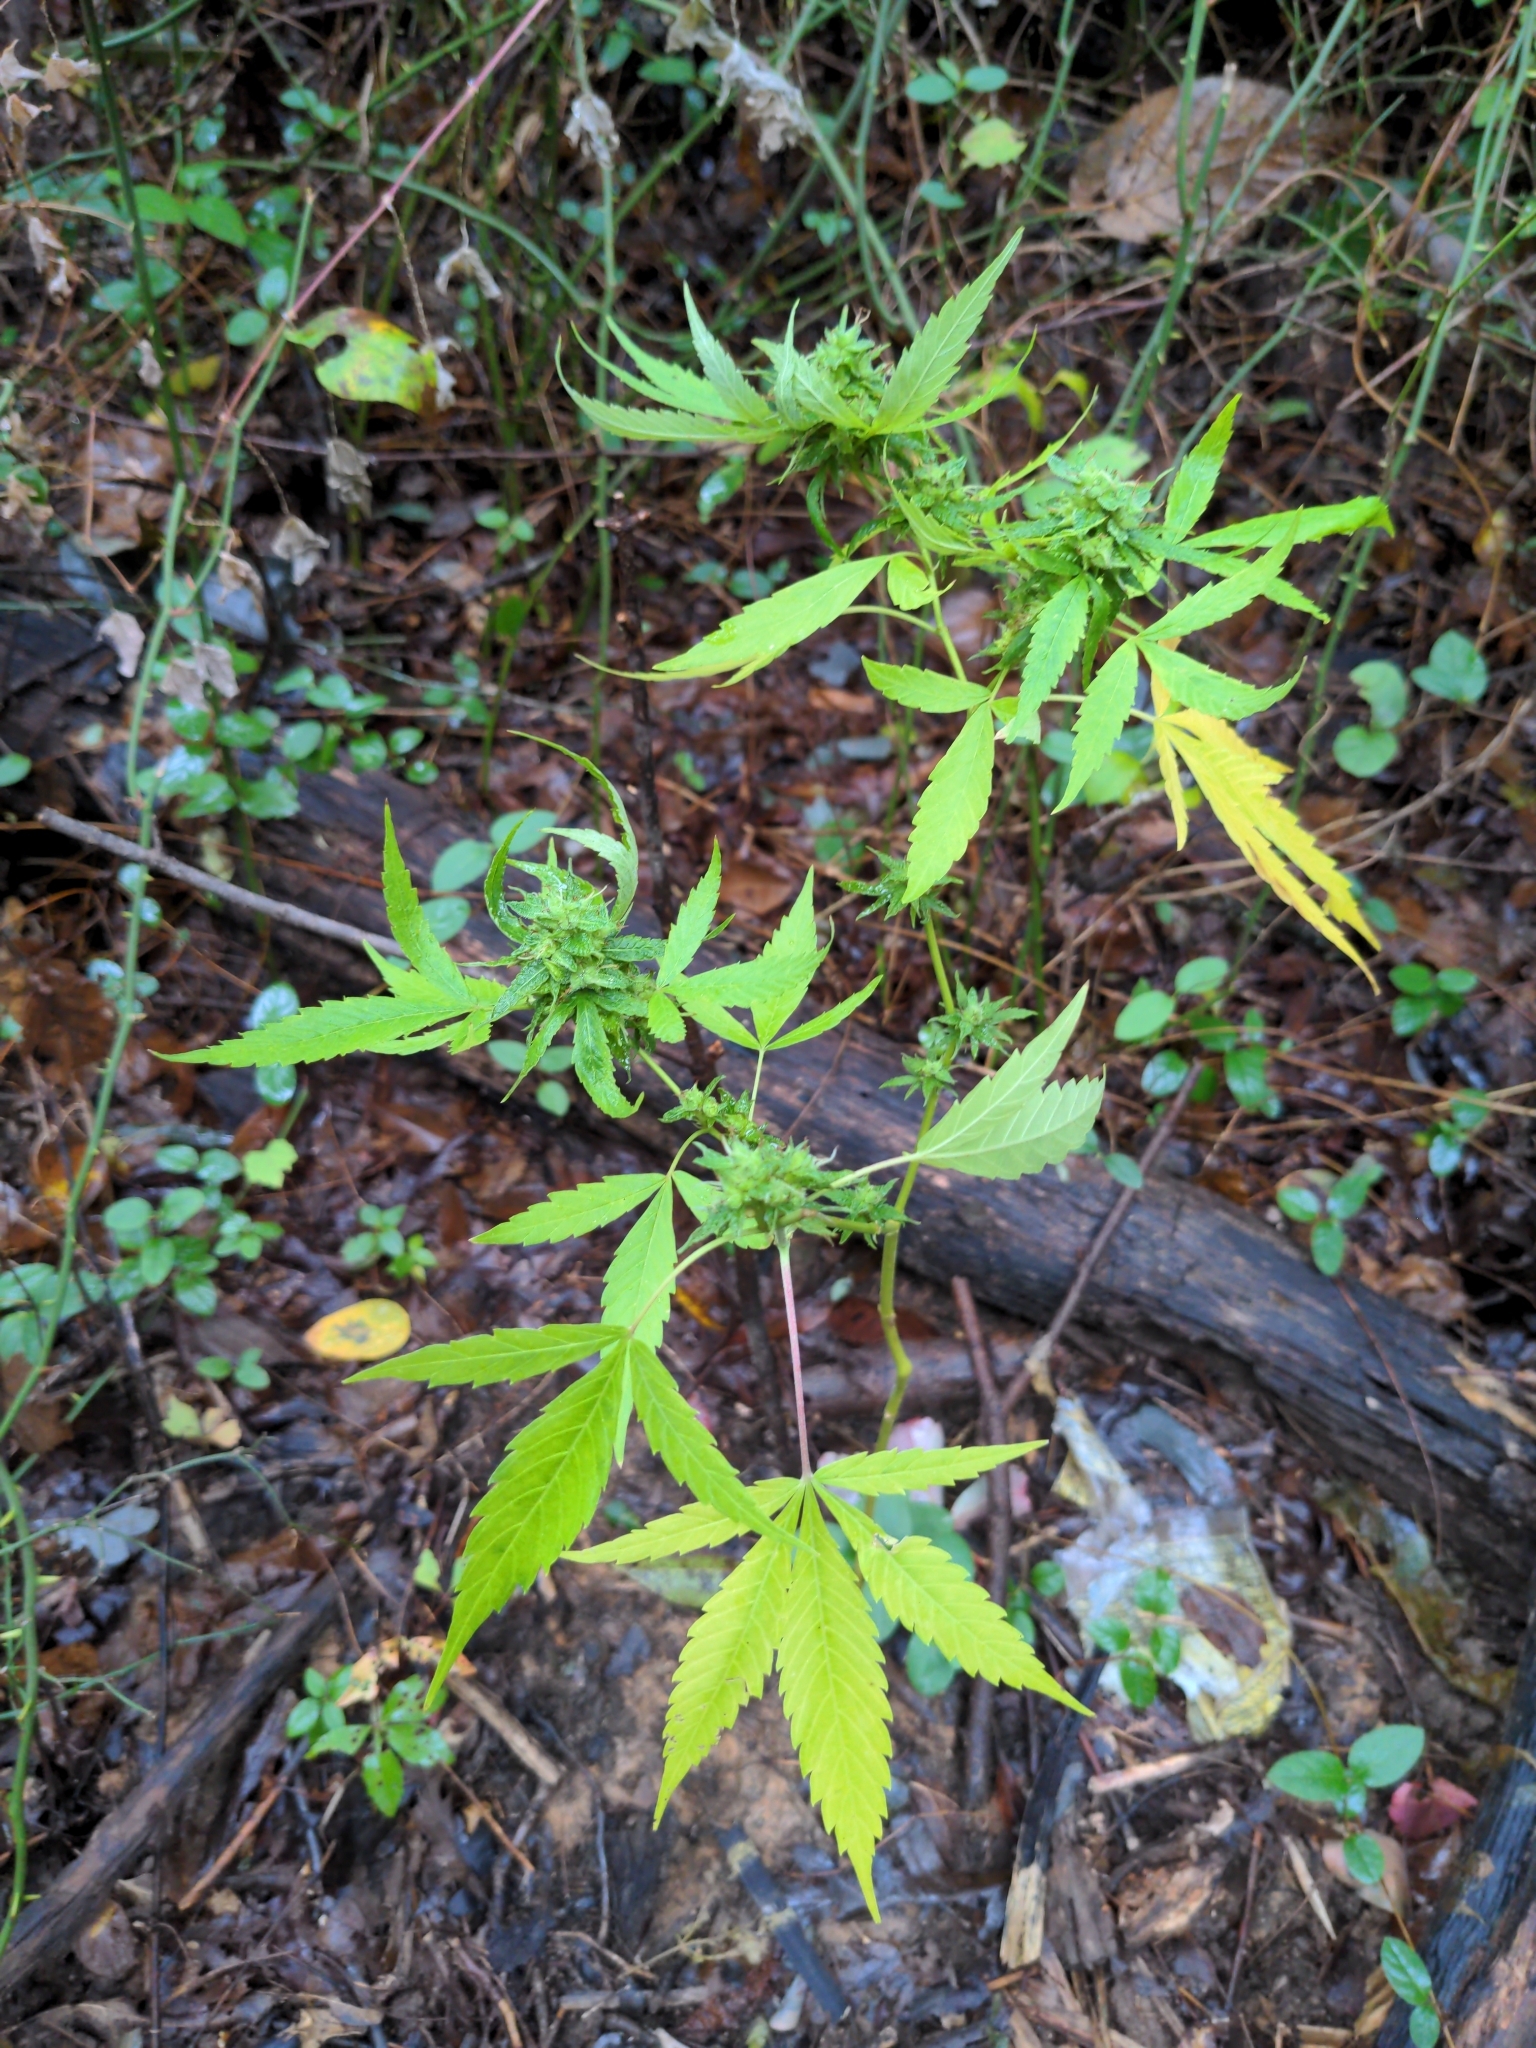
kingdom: Plantae
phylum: Tracheophyta
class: Magnoliopsida
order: Rosales
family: Cannabaceae
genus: Cannabis
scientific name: Cannabis sativa
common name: Hemp
